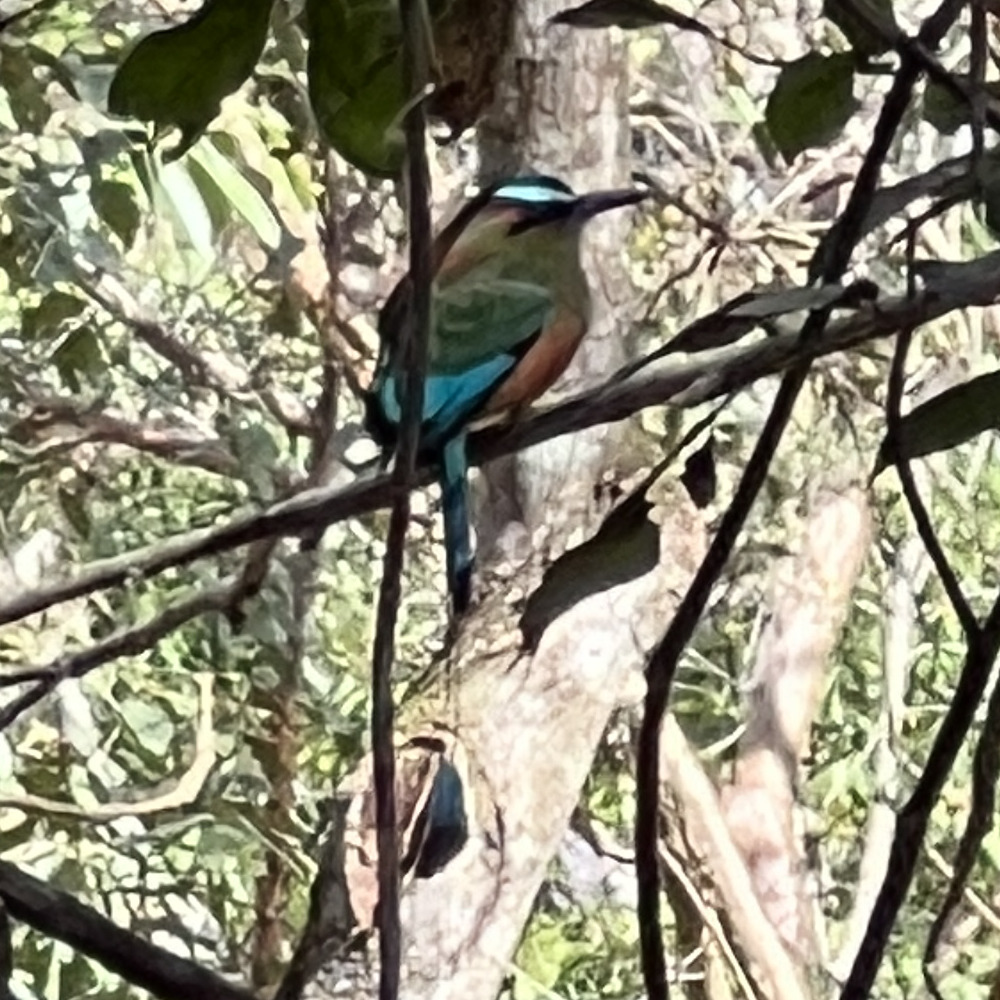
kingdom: Animalia
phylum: Chordata
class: Aves
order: Coraciiformes
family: Momotidae
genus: Eumomota
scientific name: Eumomota superciliosa
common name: Turquoise-browed motmot
